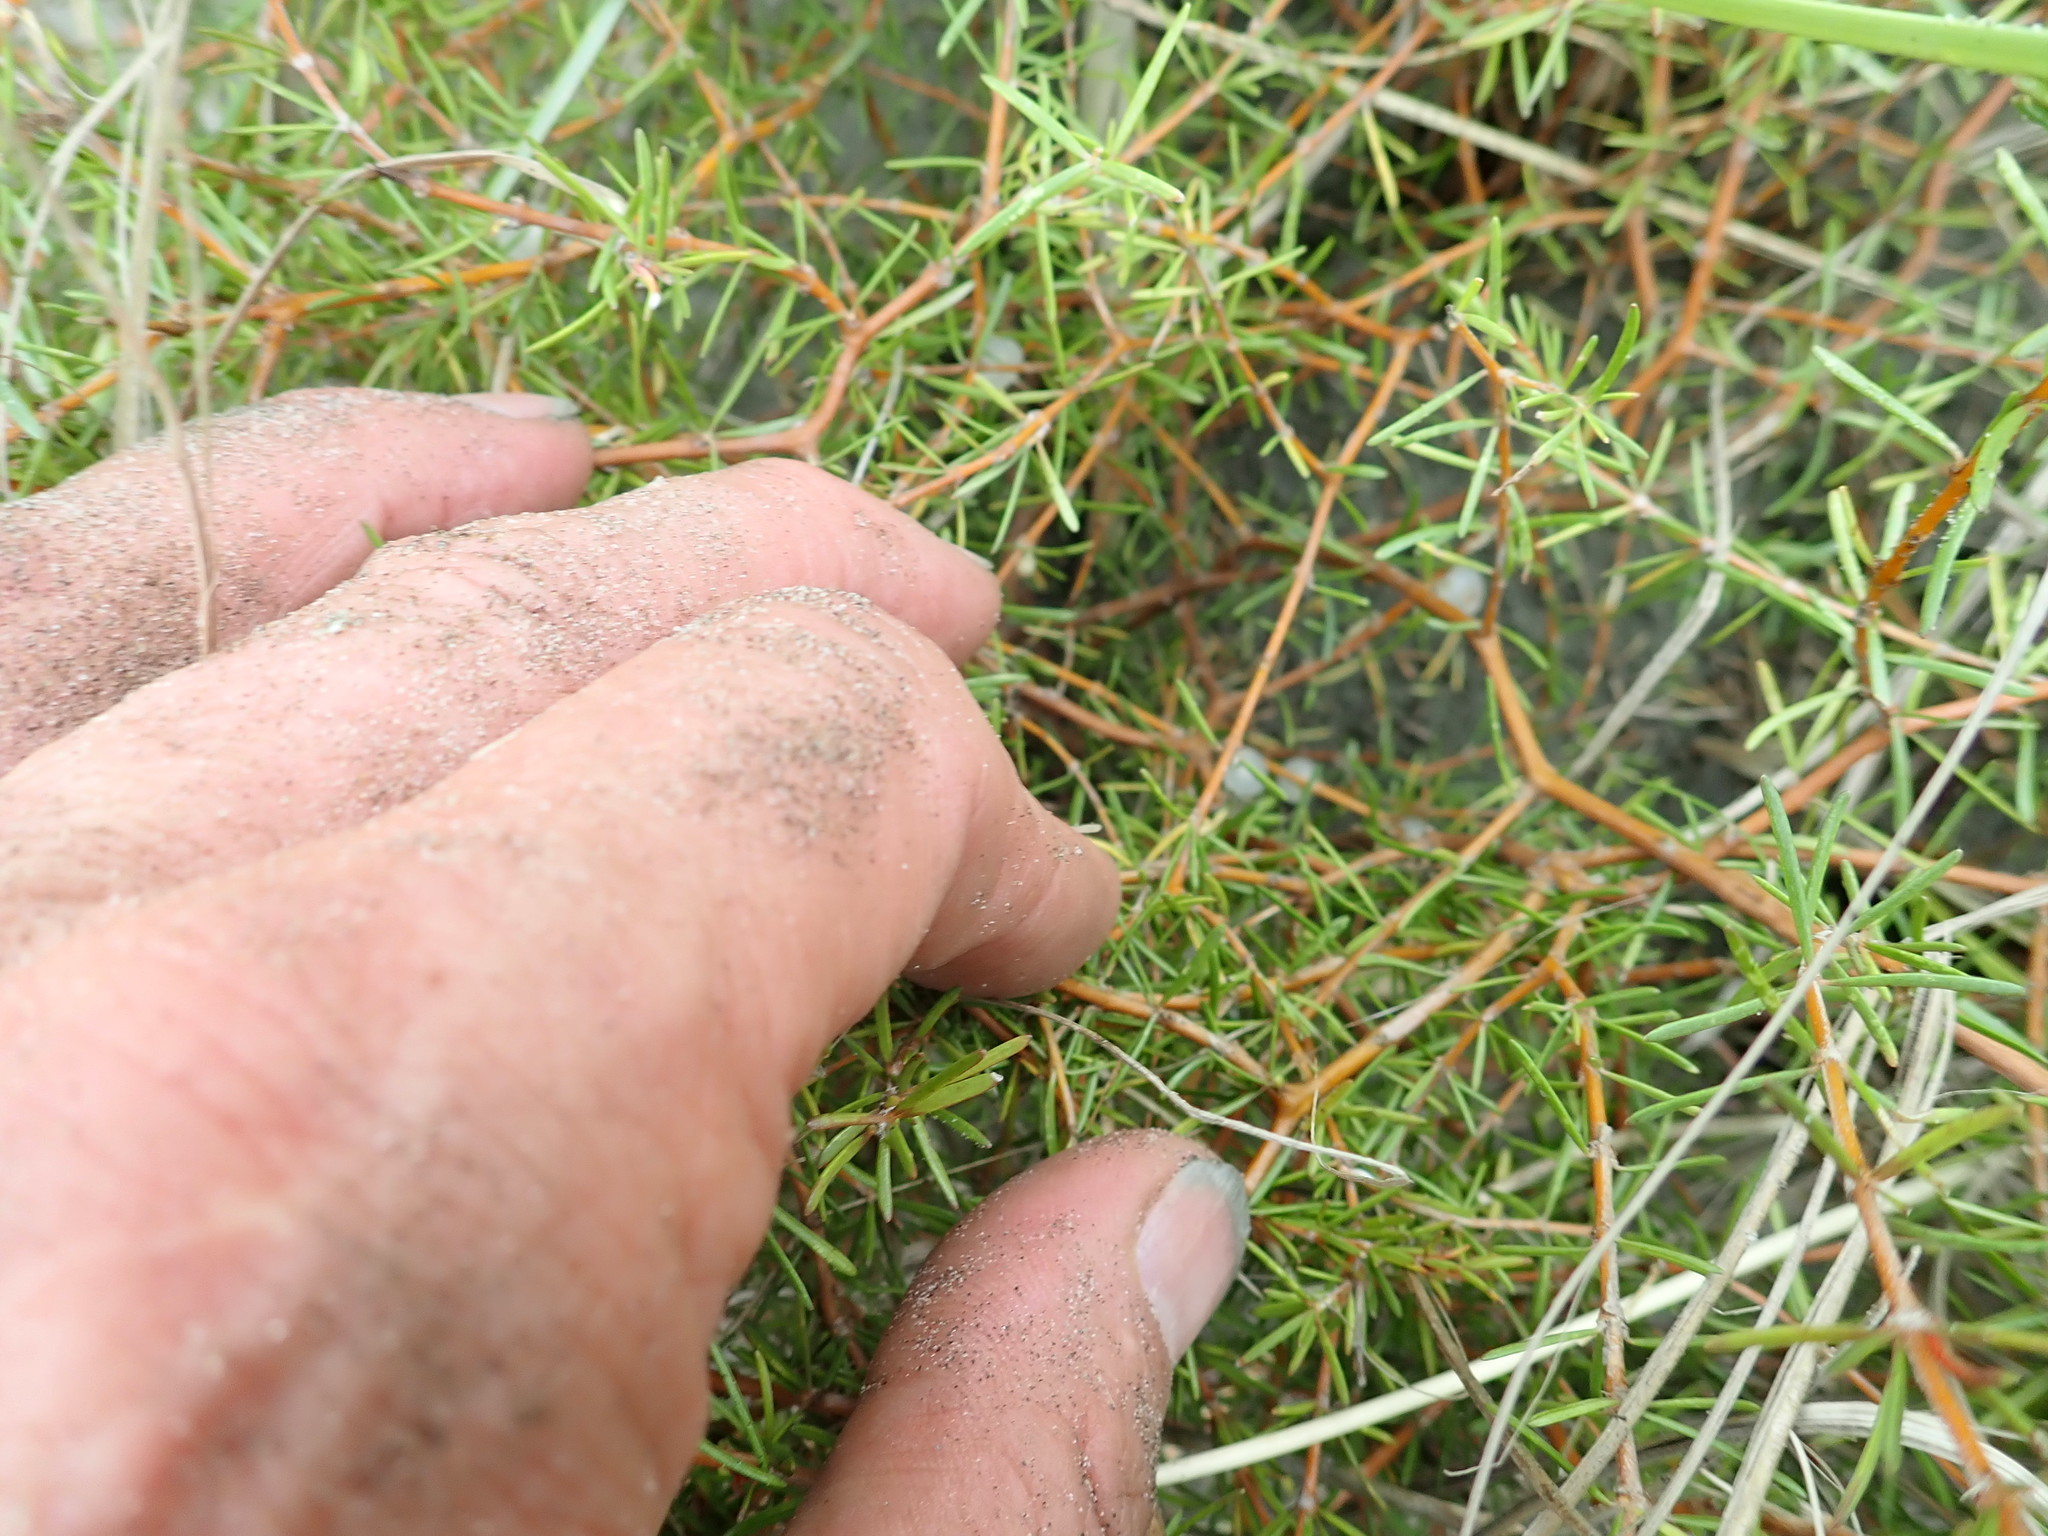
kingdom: Plantae
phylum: Tracheophyta
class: Magnoliopsida
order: Gentianales
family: Rubiaceae
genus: Coprosma
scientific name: Coprosma acerosa
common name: Sand coprosma
